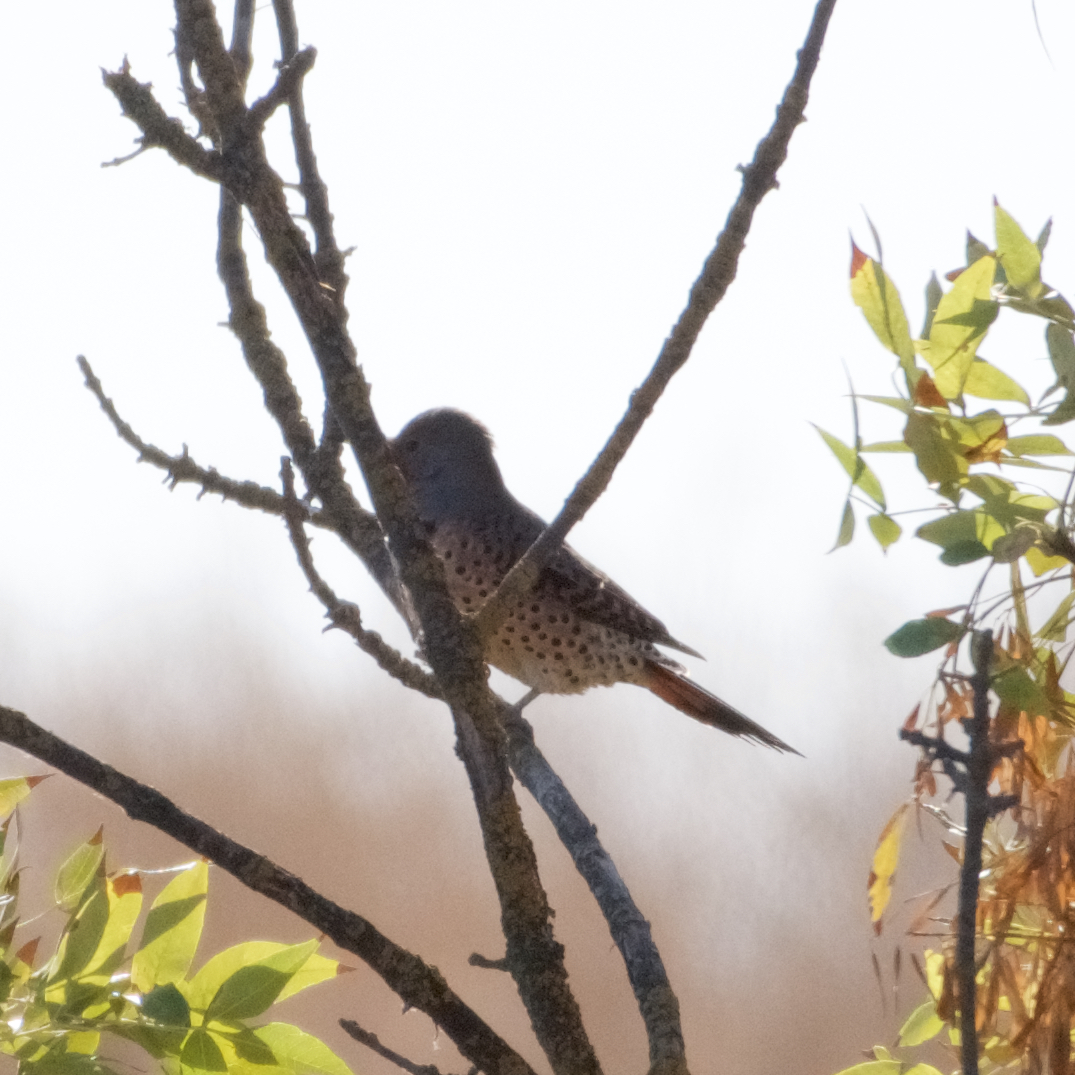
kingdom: Animalia
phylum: Chordata
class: Aves
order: Piciformes
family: Picidae
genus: Colaptes
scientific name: Colaptes auratus
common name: Northern flicker
